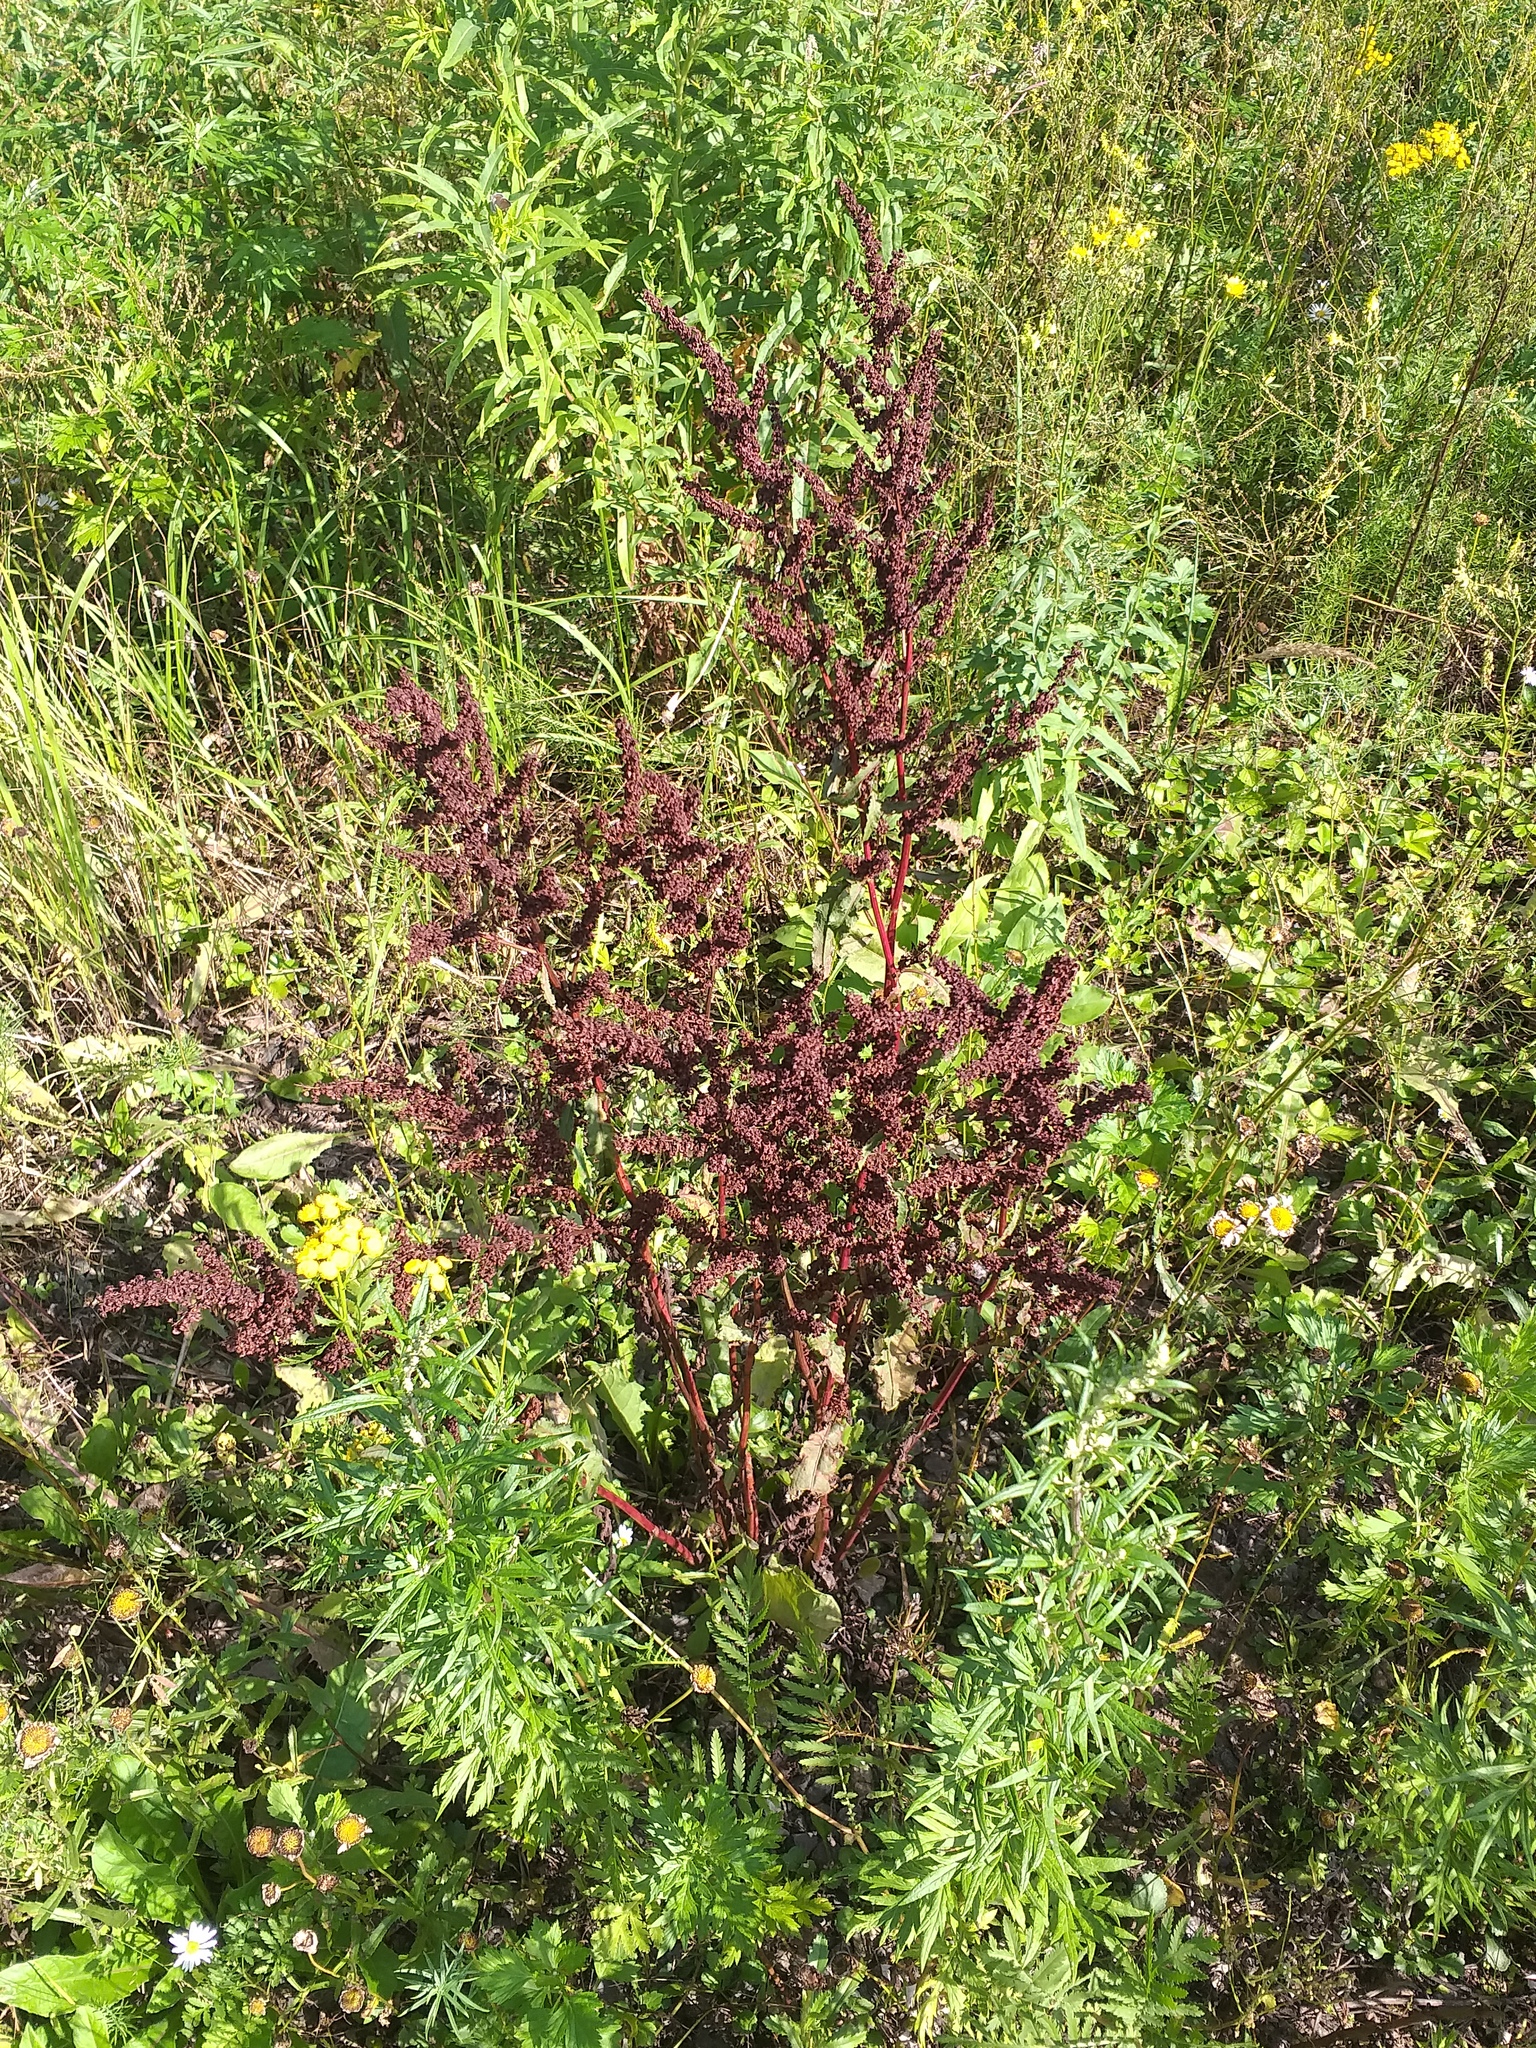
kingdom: Plantae
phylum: Tracheophyta
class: Magnoliopsida
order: Caryophyllales
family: Polygonaceae
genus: Rumex
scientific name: Rumex crispus
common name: Curled dock
